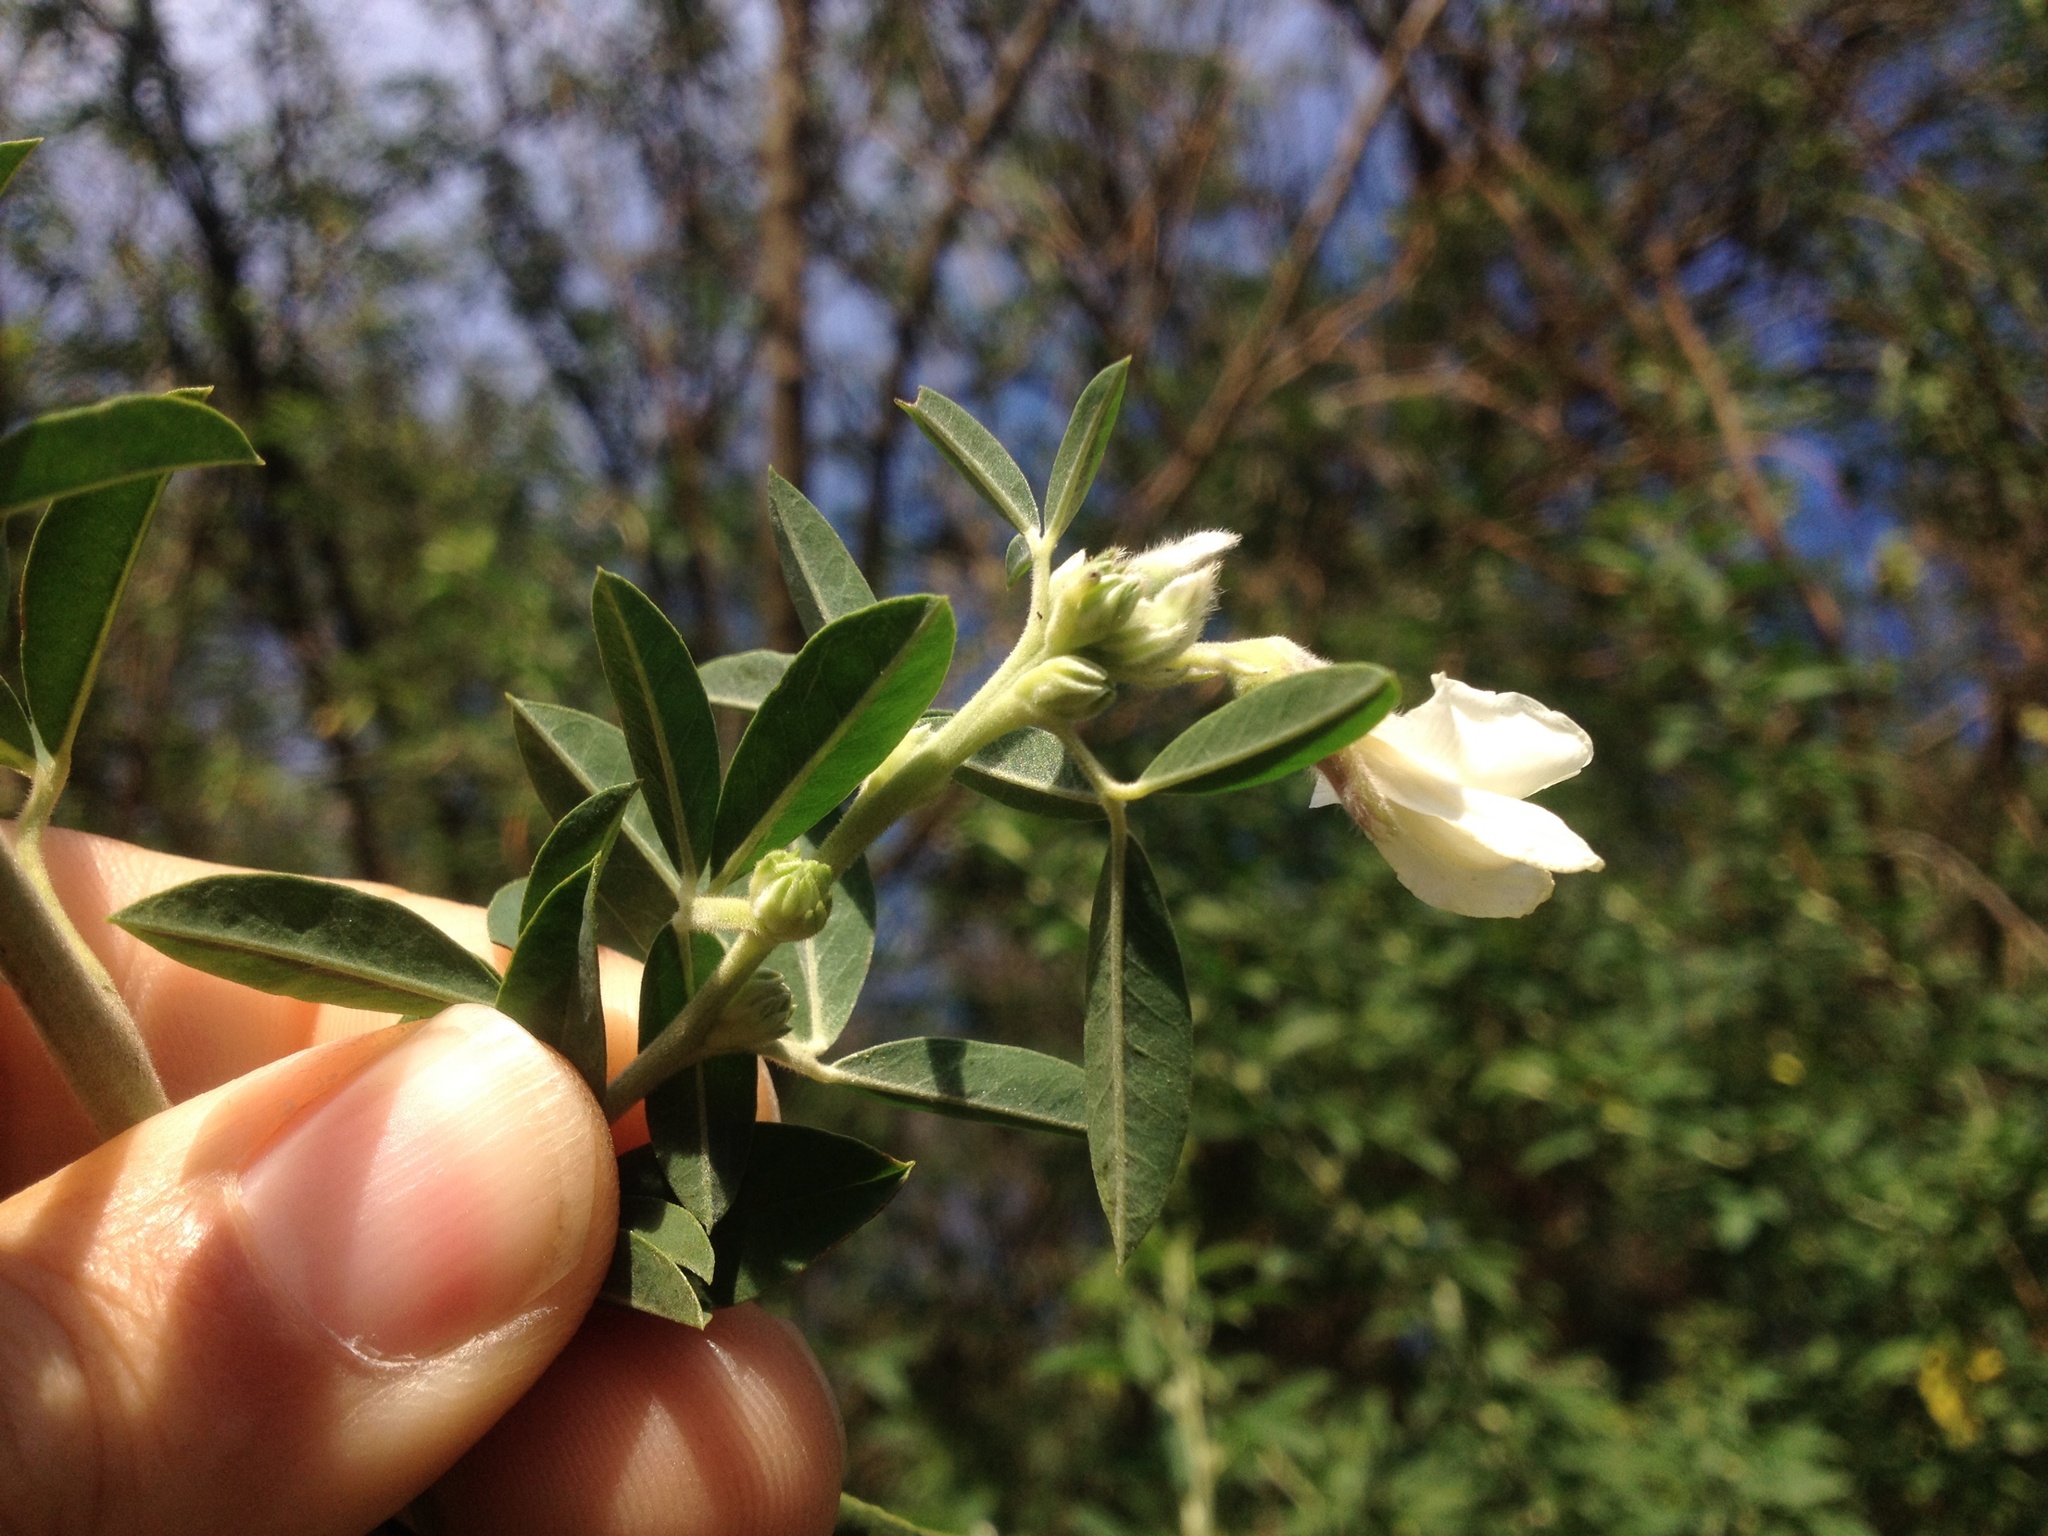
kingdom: Plantae
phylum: Tracheophyta
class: Magnoliopsida
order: Fabales
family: Fabaceae
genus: Chamaecytisus
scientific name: Chamaecytisus prolifer
